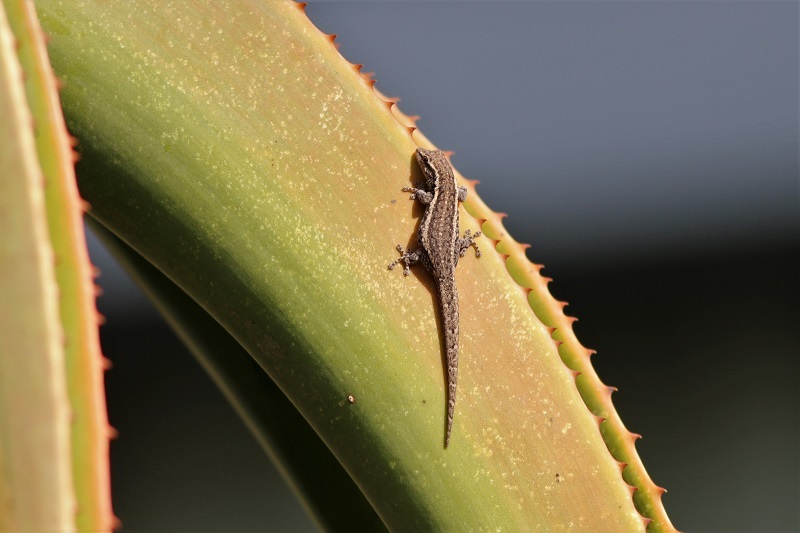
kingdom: Animalia
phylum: Chordata
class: Squamata
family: Gekkonidae
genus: Lygodactylus
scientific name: Lygodactylus capensis
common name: Cape dwarf gecko
